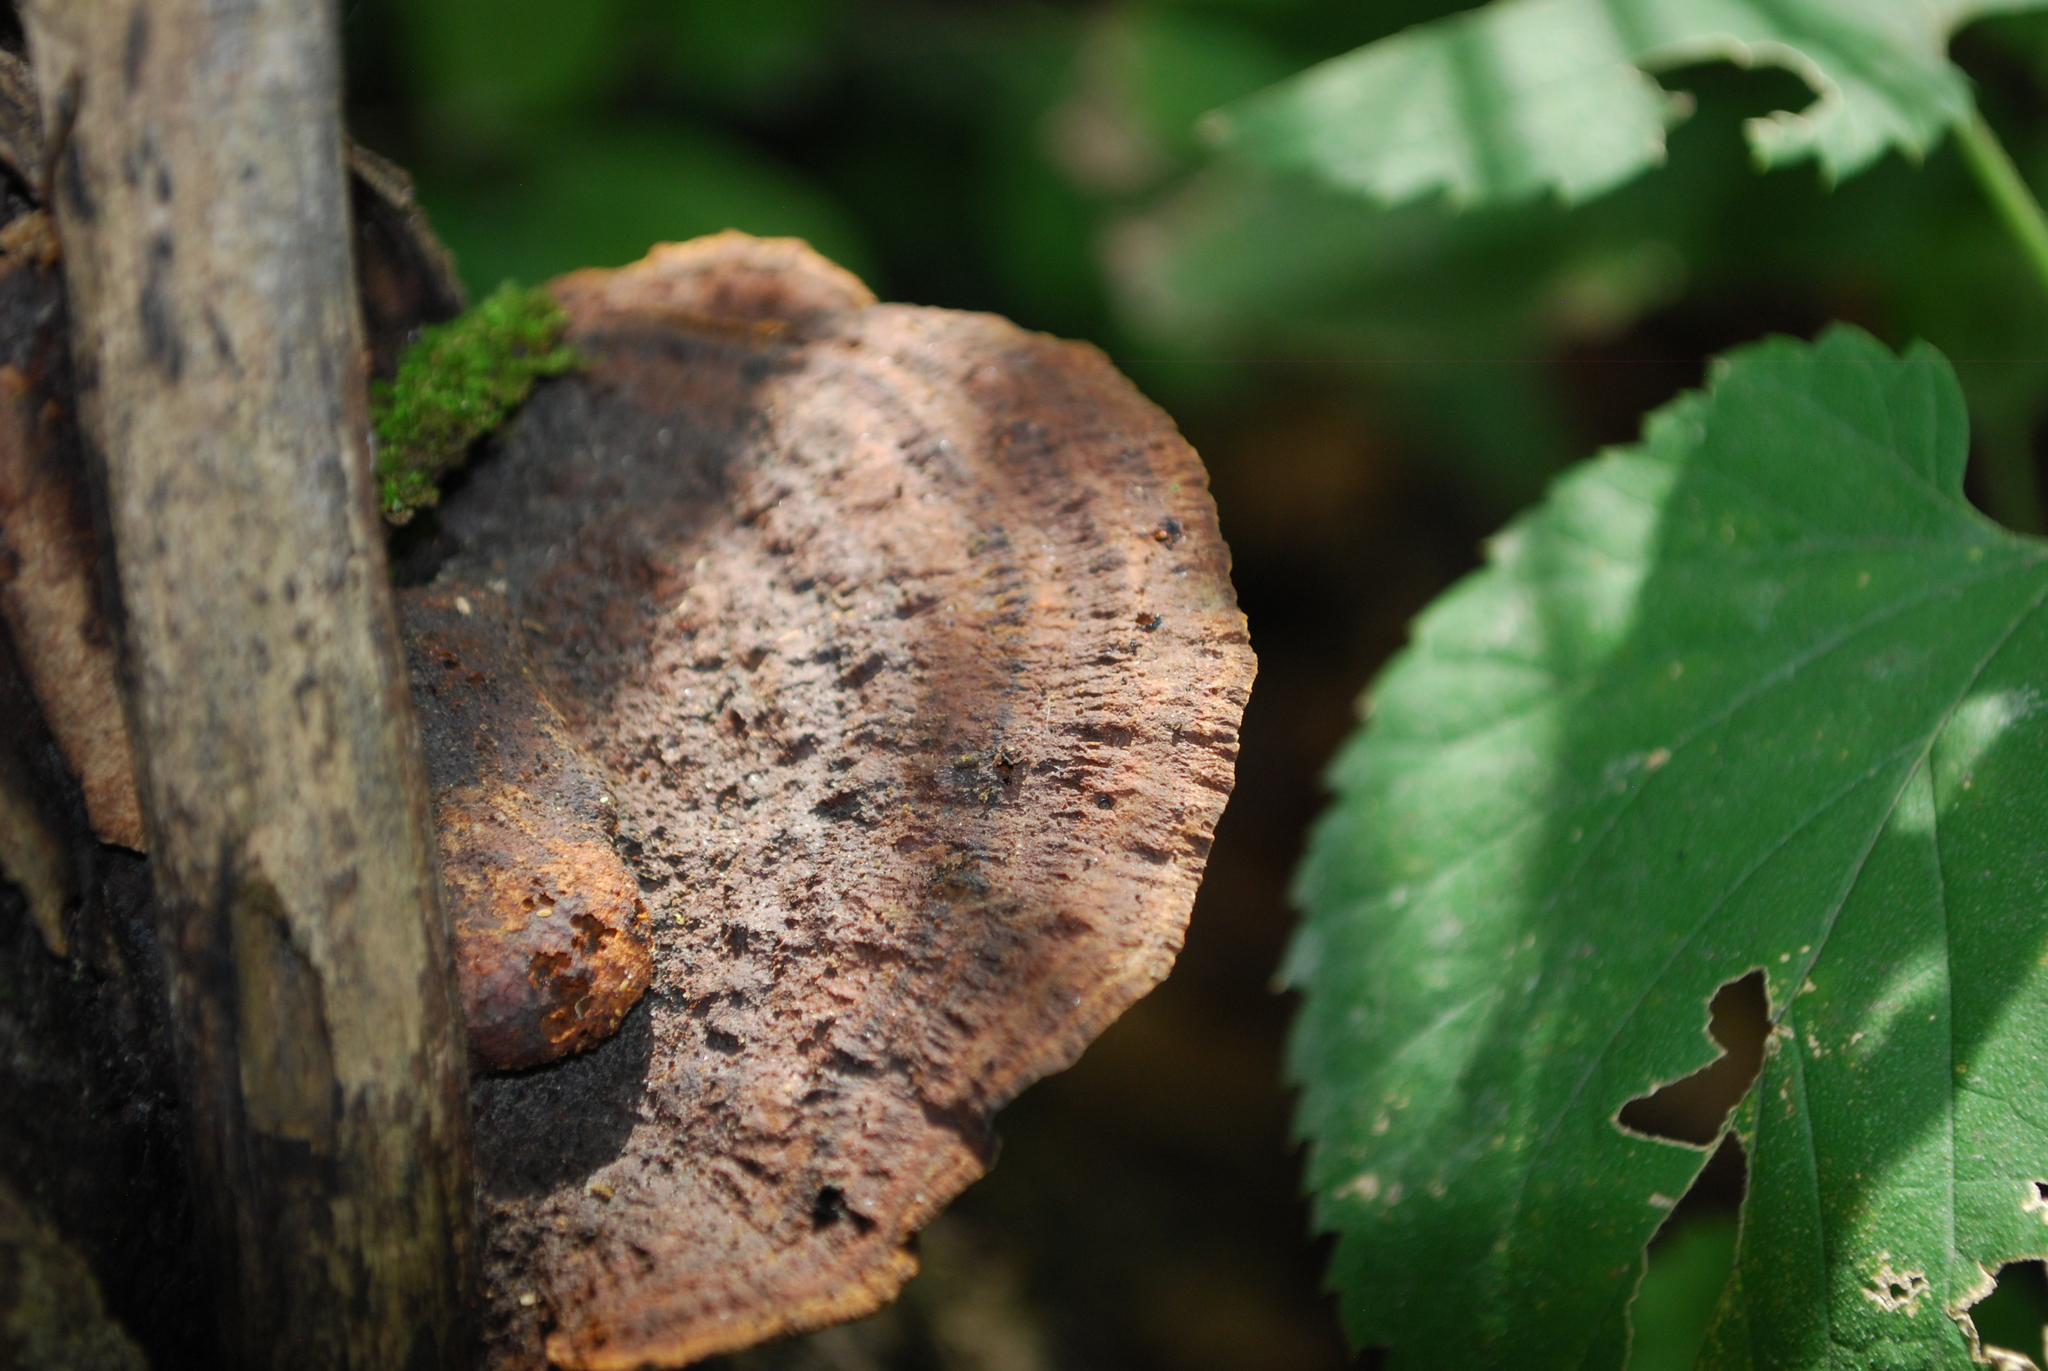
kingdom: Fungi
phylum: Basidiomycota
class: Agaricomycetes
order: Hymenochaetales
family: Hymenochaetaceae
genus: Phellinus
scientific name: Phellinus gilvus
